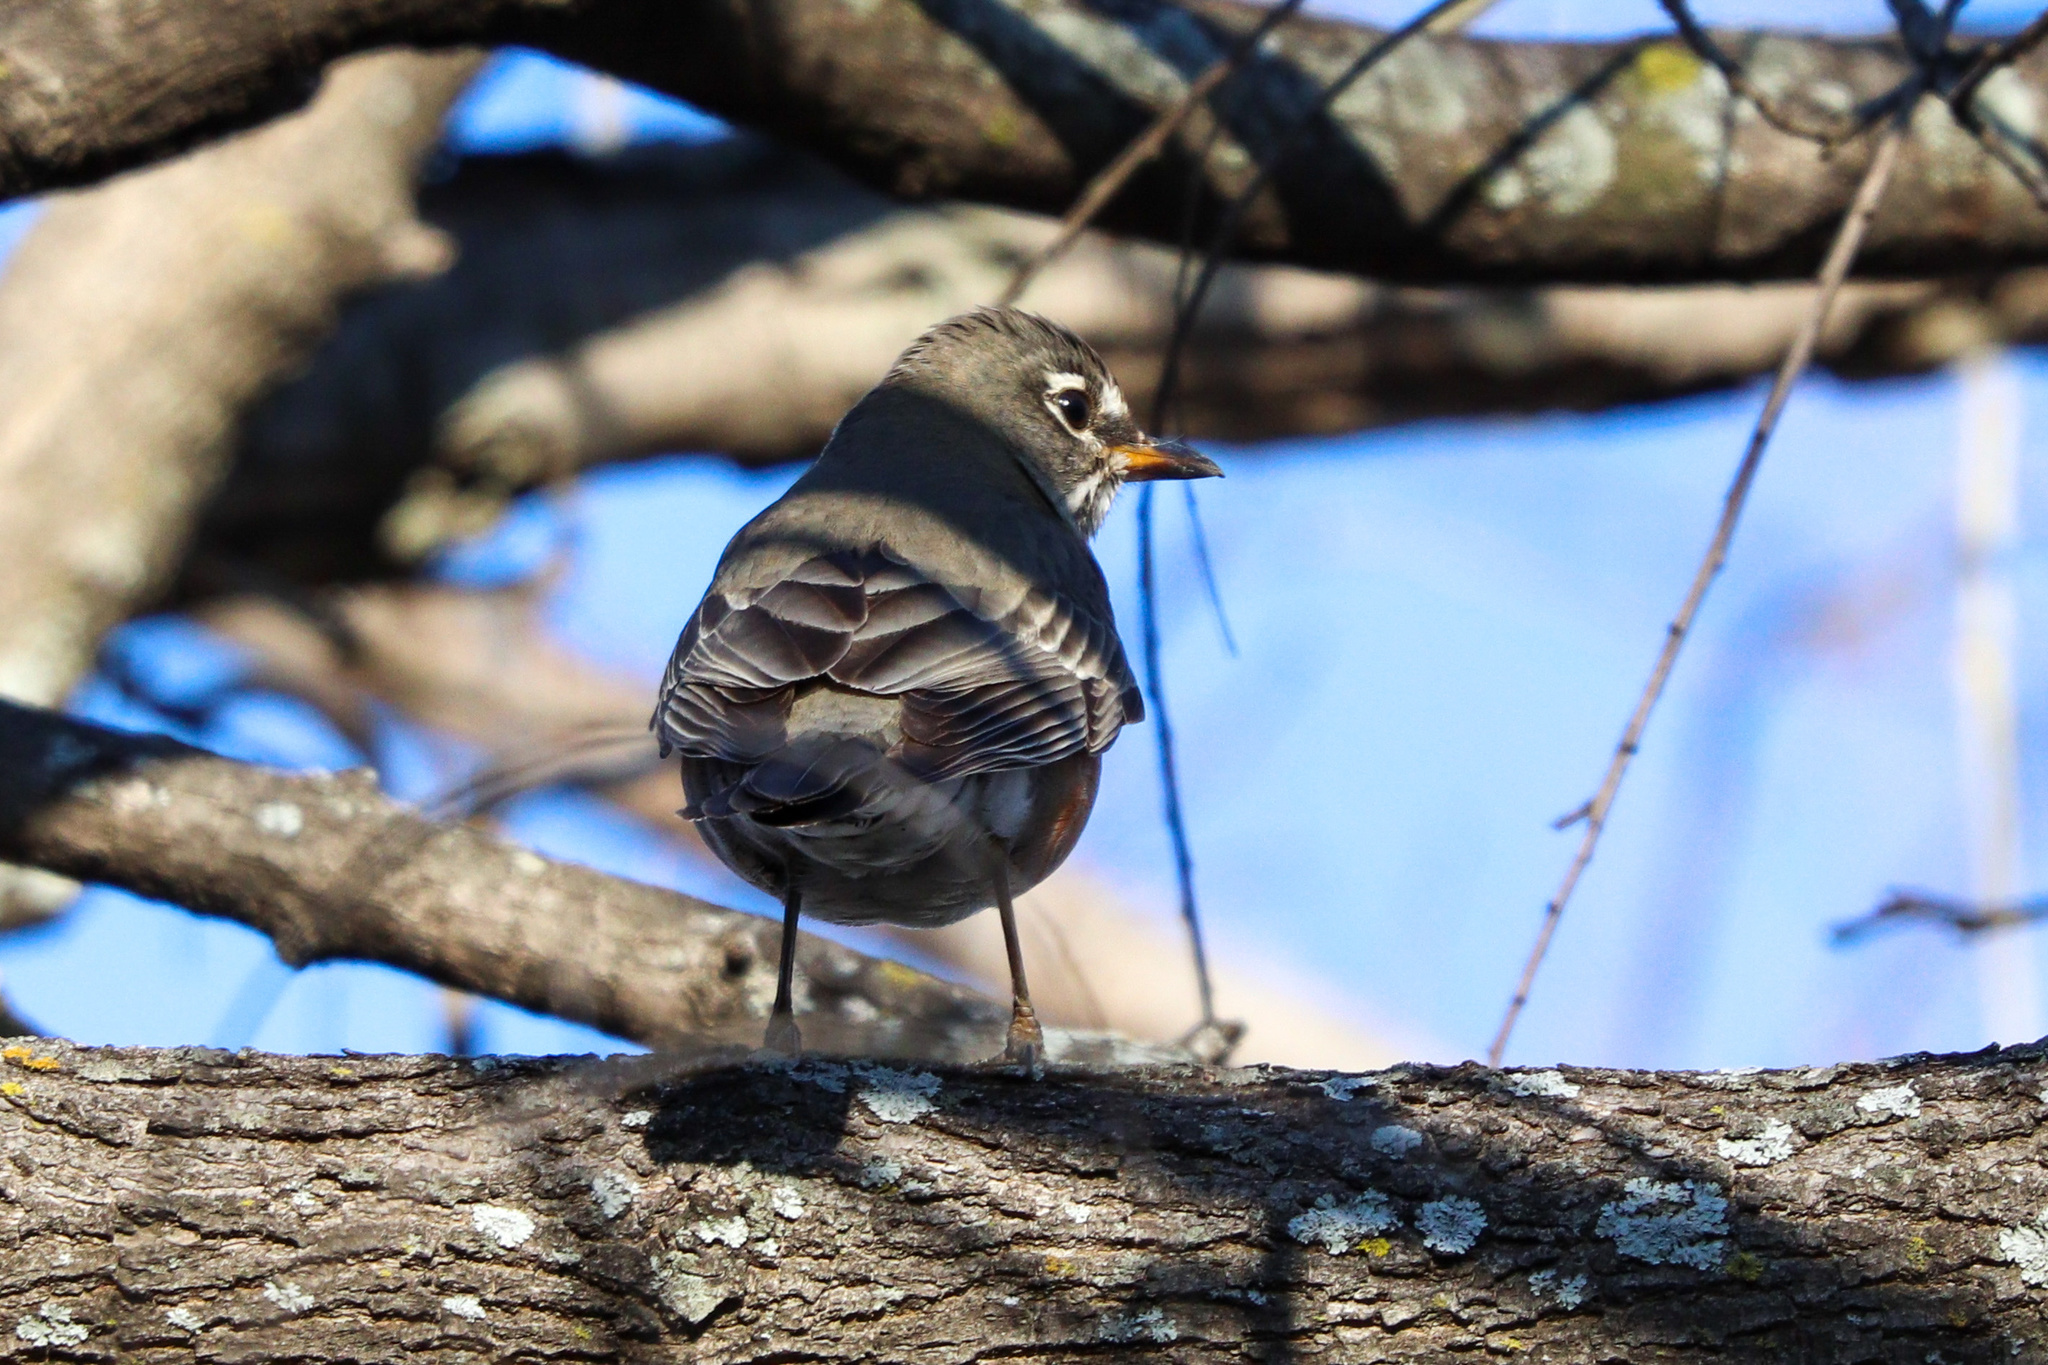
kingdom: Animalia
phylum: Chordata
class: Aves
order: Passeriformes
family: Turdidae
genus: Turdus
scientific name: Turdus migratorius
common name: American robin
